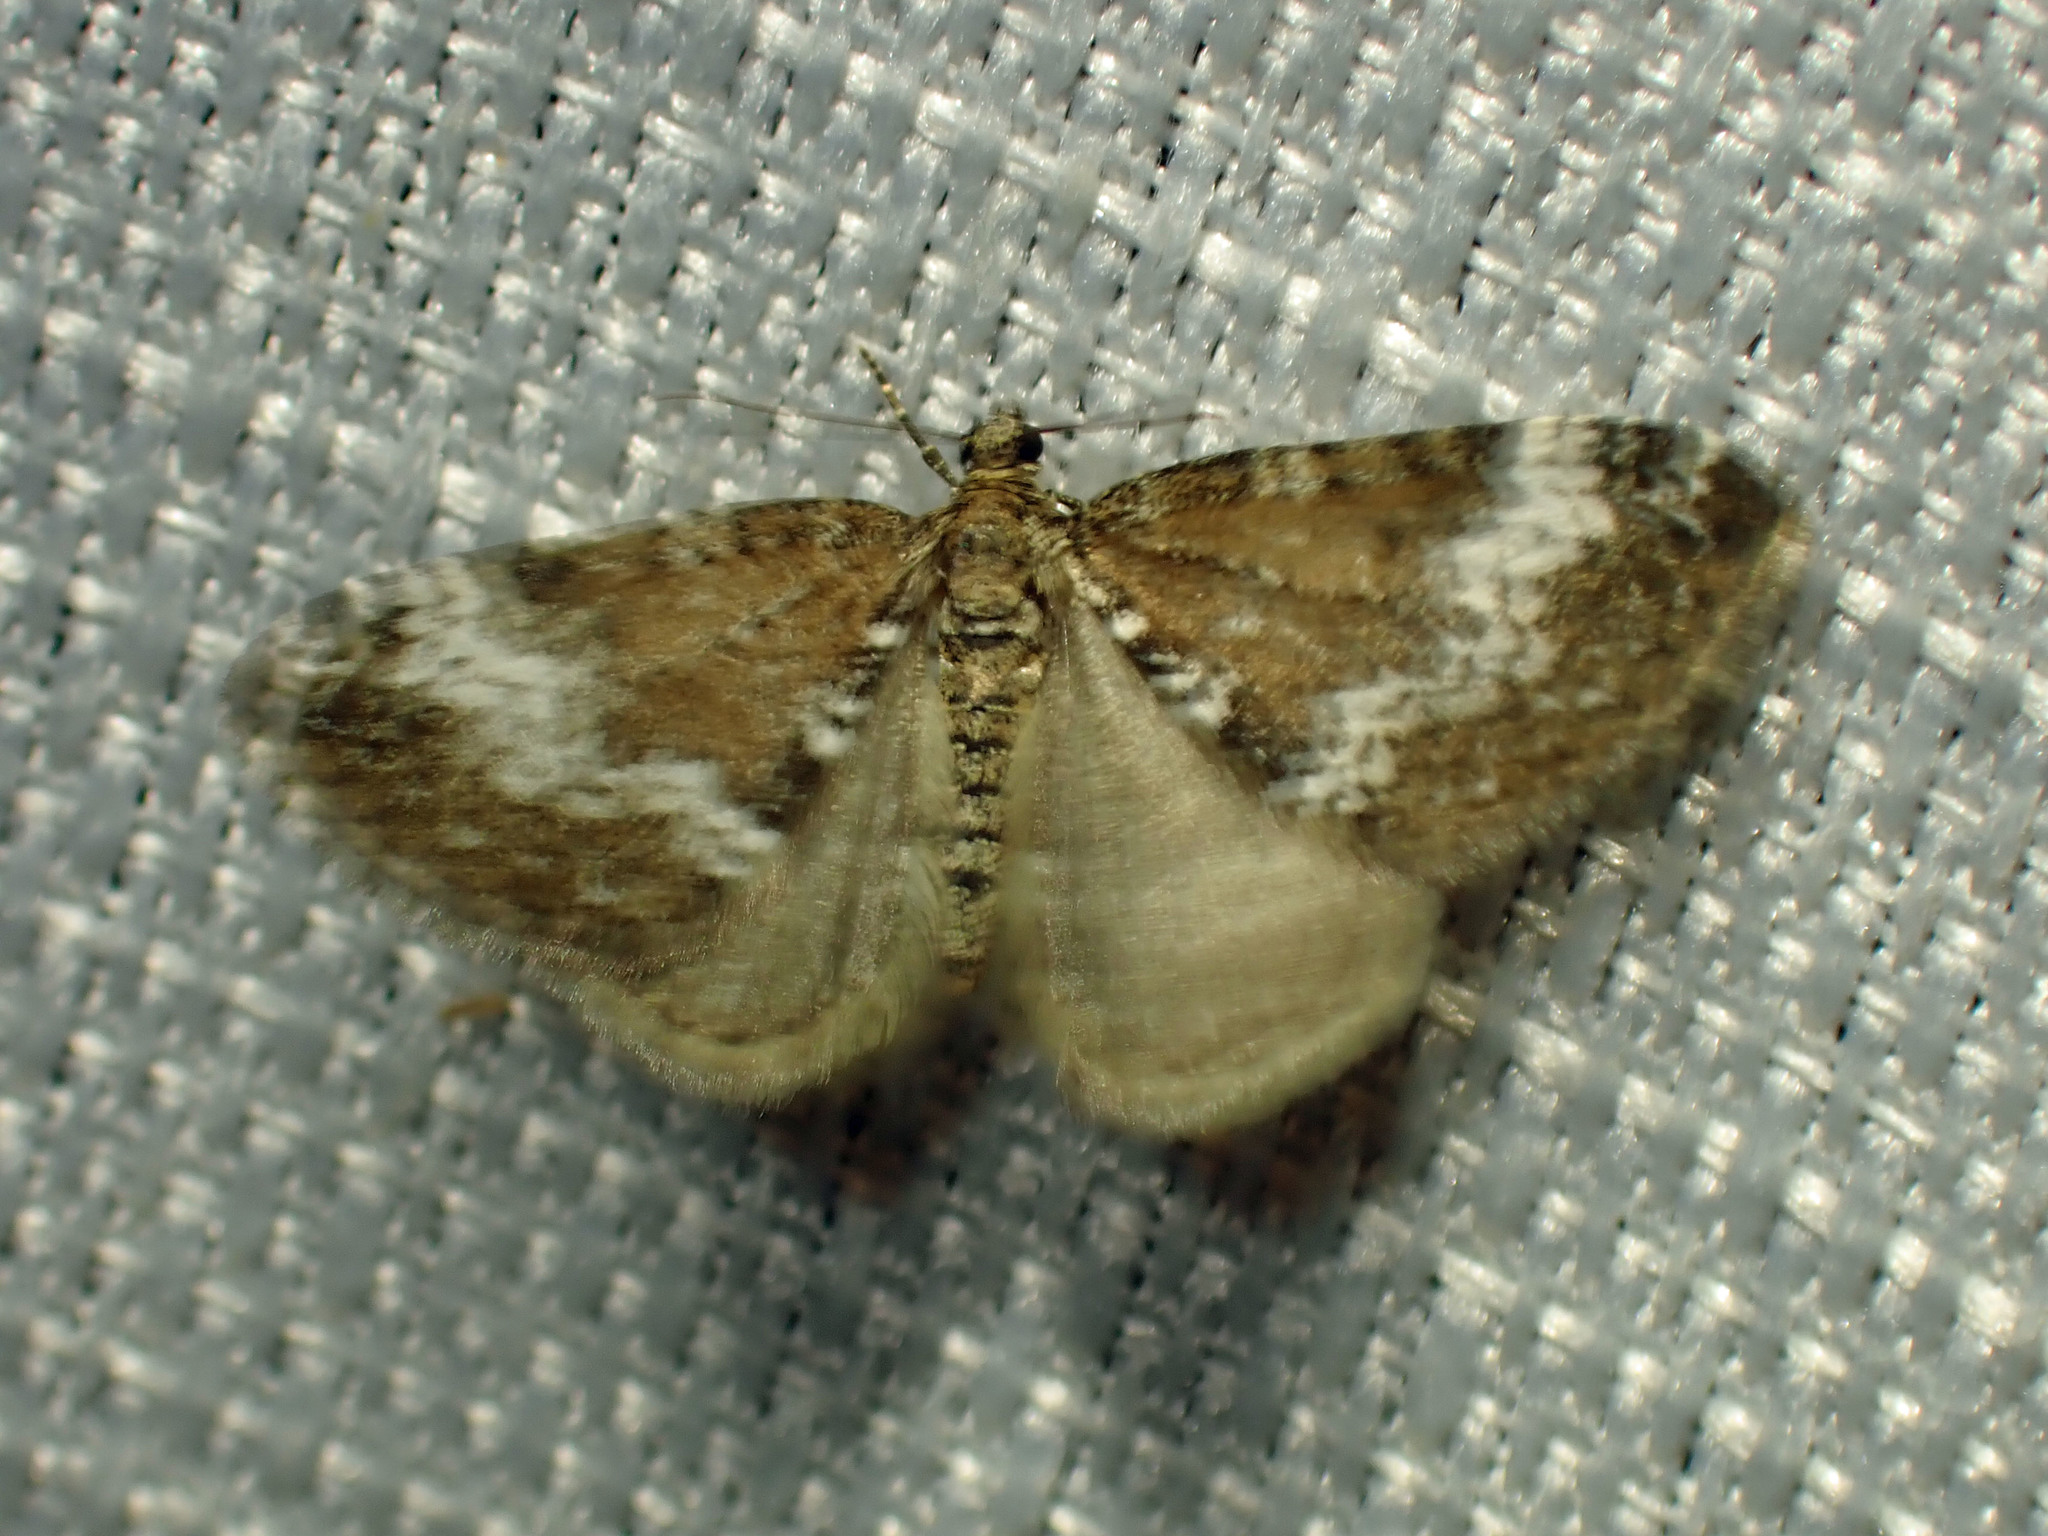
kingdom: Animalia
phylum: Arthropoda
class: Insecta
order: Lepidoptera
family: Geometridae
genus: Perizoma
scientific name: Perizoma alchemillata
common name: Small rivulet
